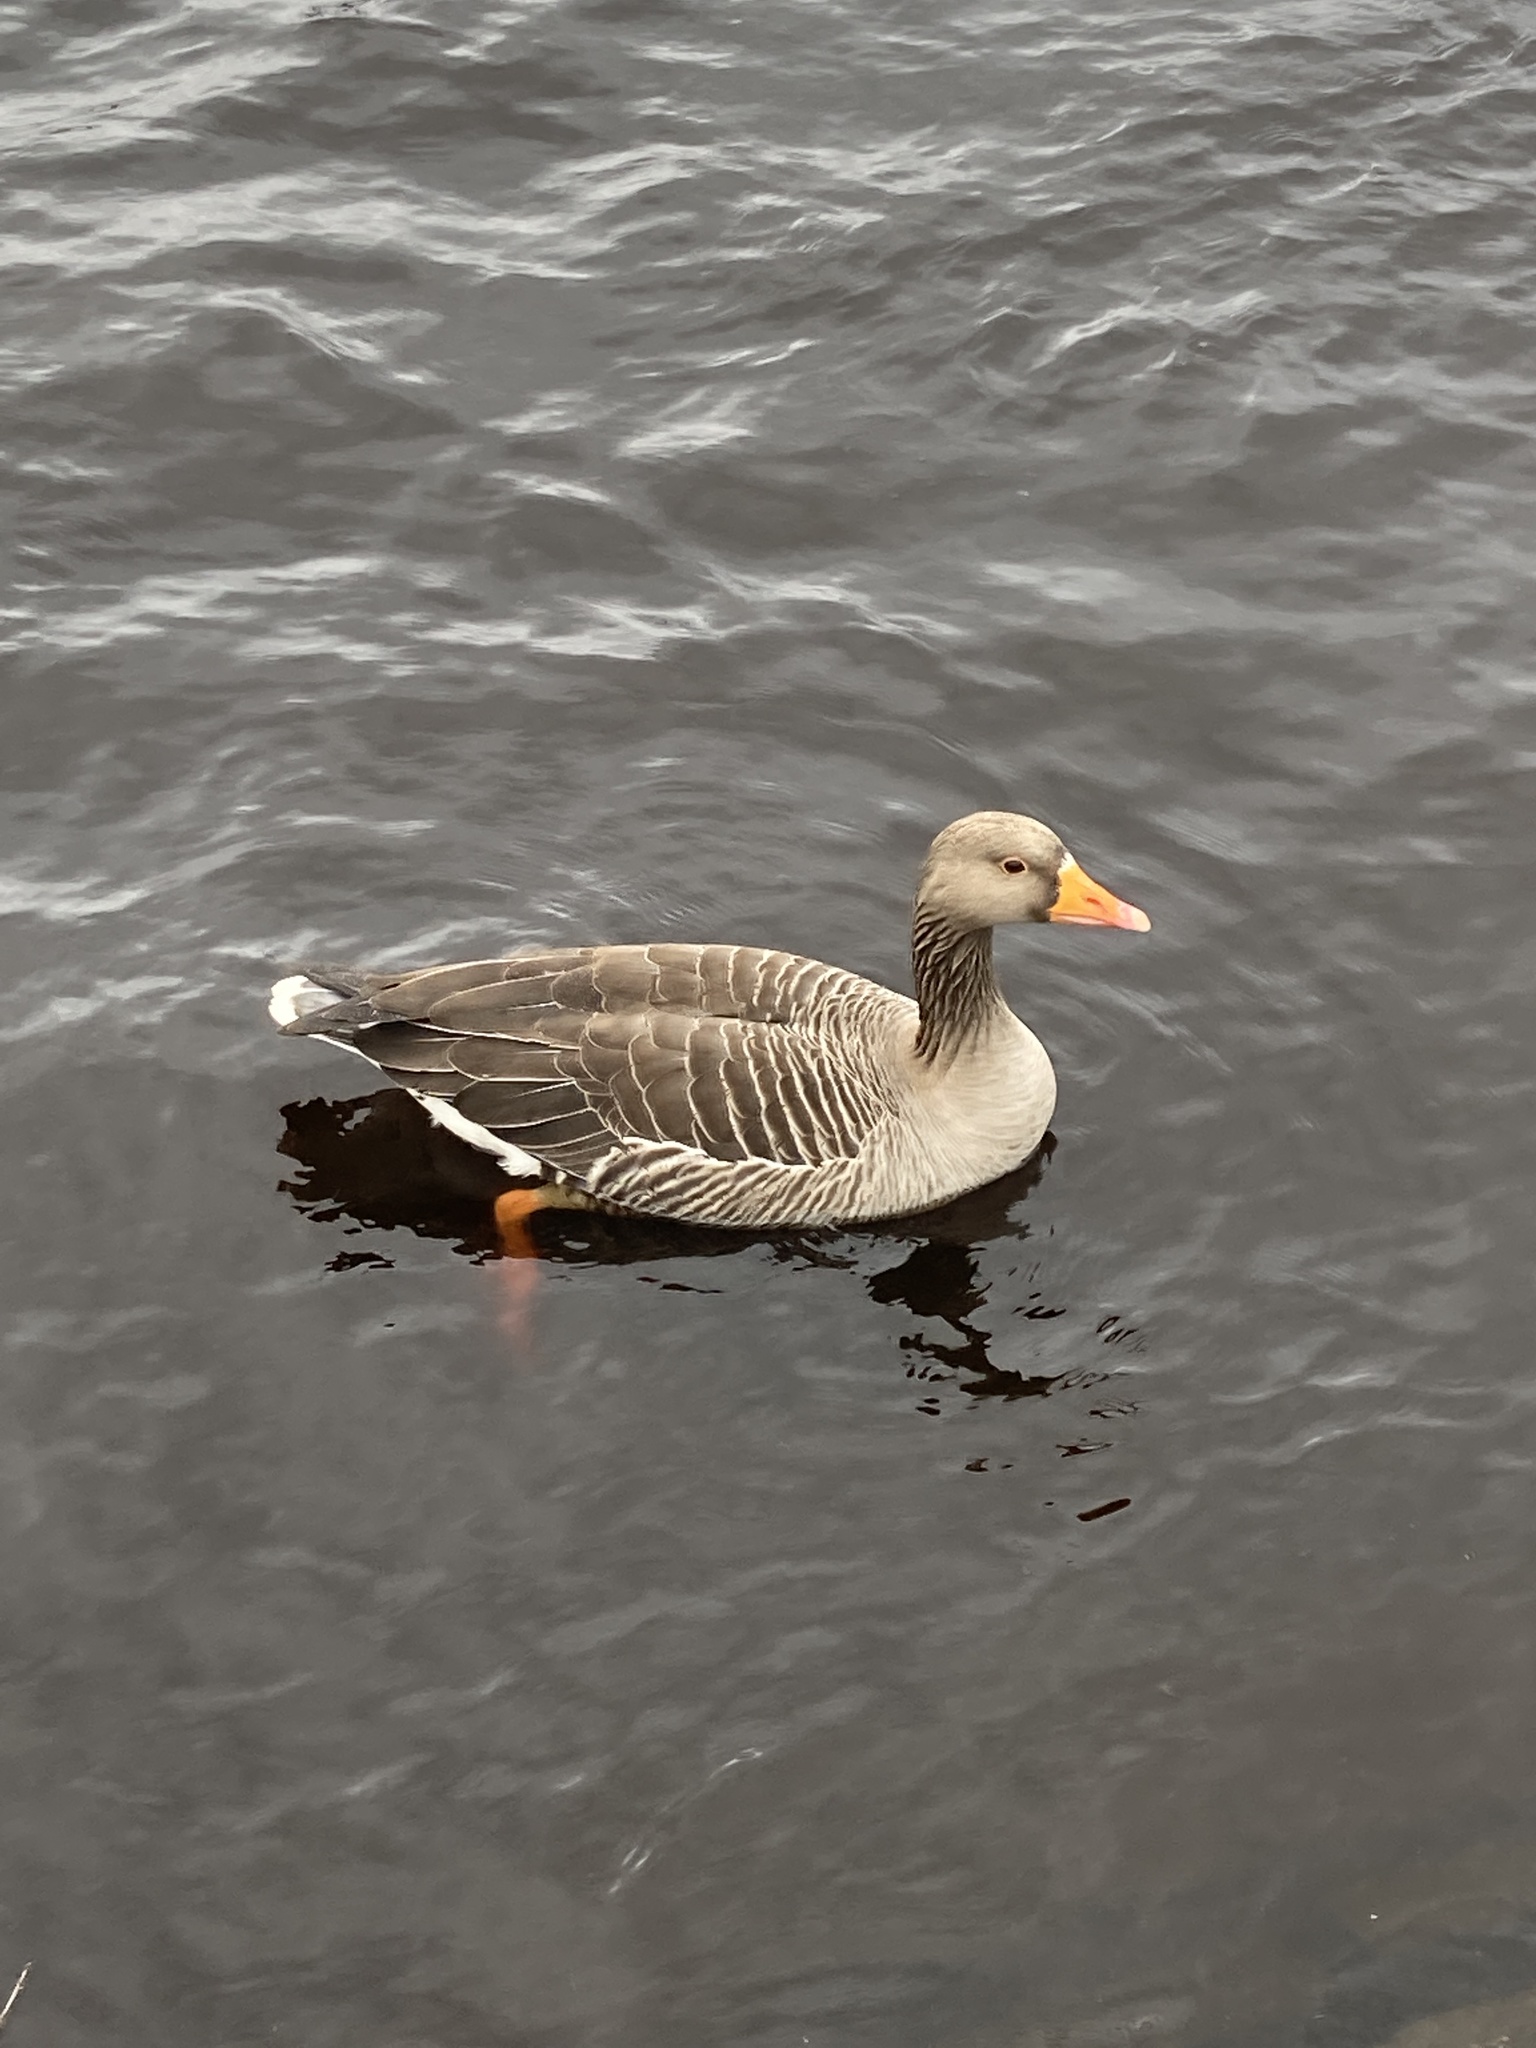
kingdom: Animalia
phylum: Chordata
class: Aves
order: Anseriformes
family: Anatidae
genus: Anser
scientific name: Anser anser
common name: Greylag goose
